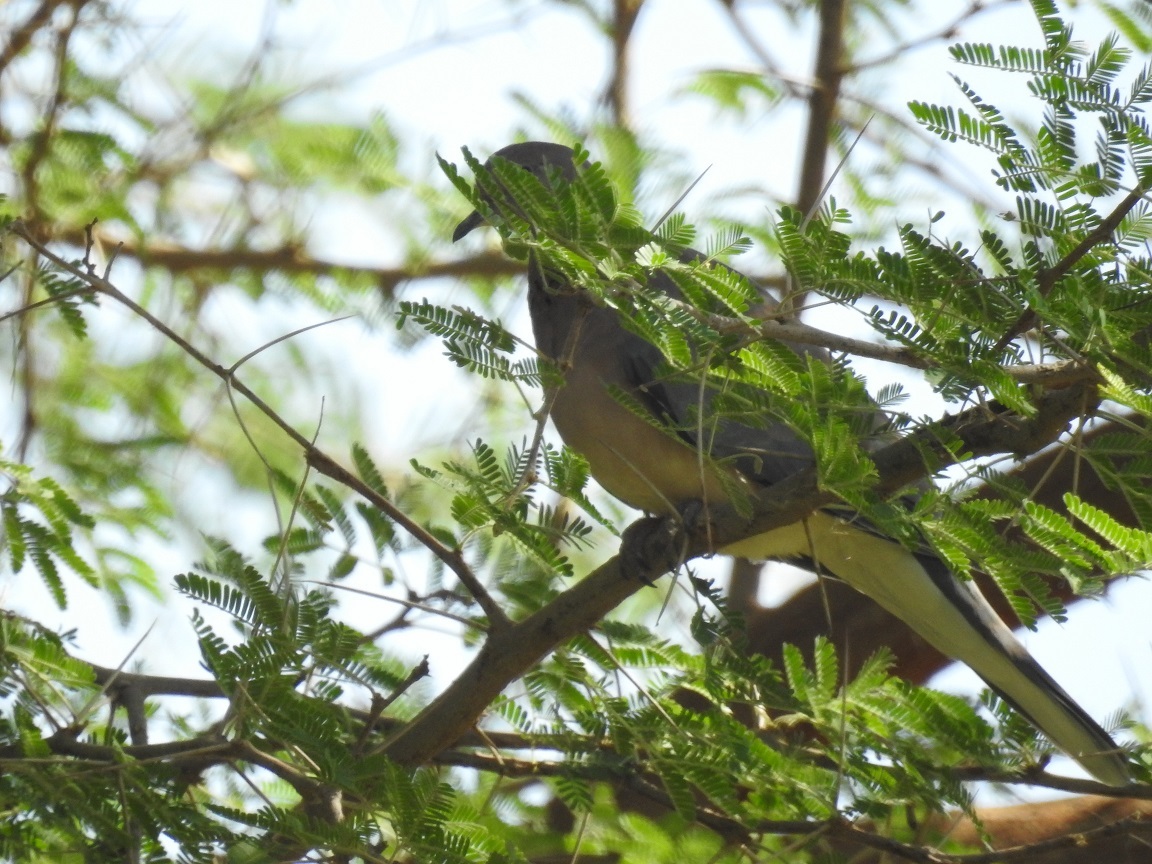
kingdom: Animalia
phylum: Chordata
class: Aves
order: Columbiformes
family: Columbidae
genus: Spilopelia
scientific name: Spilopelia senegalensis
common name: Laughing dove
